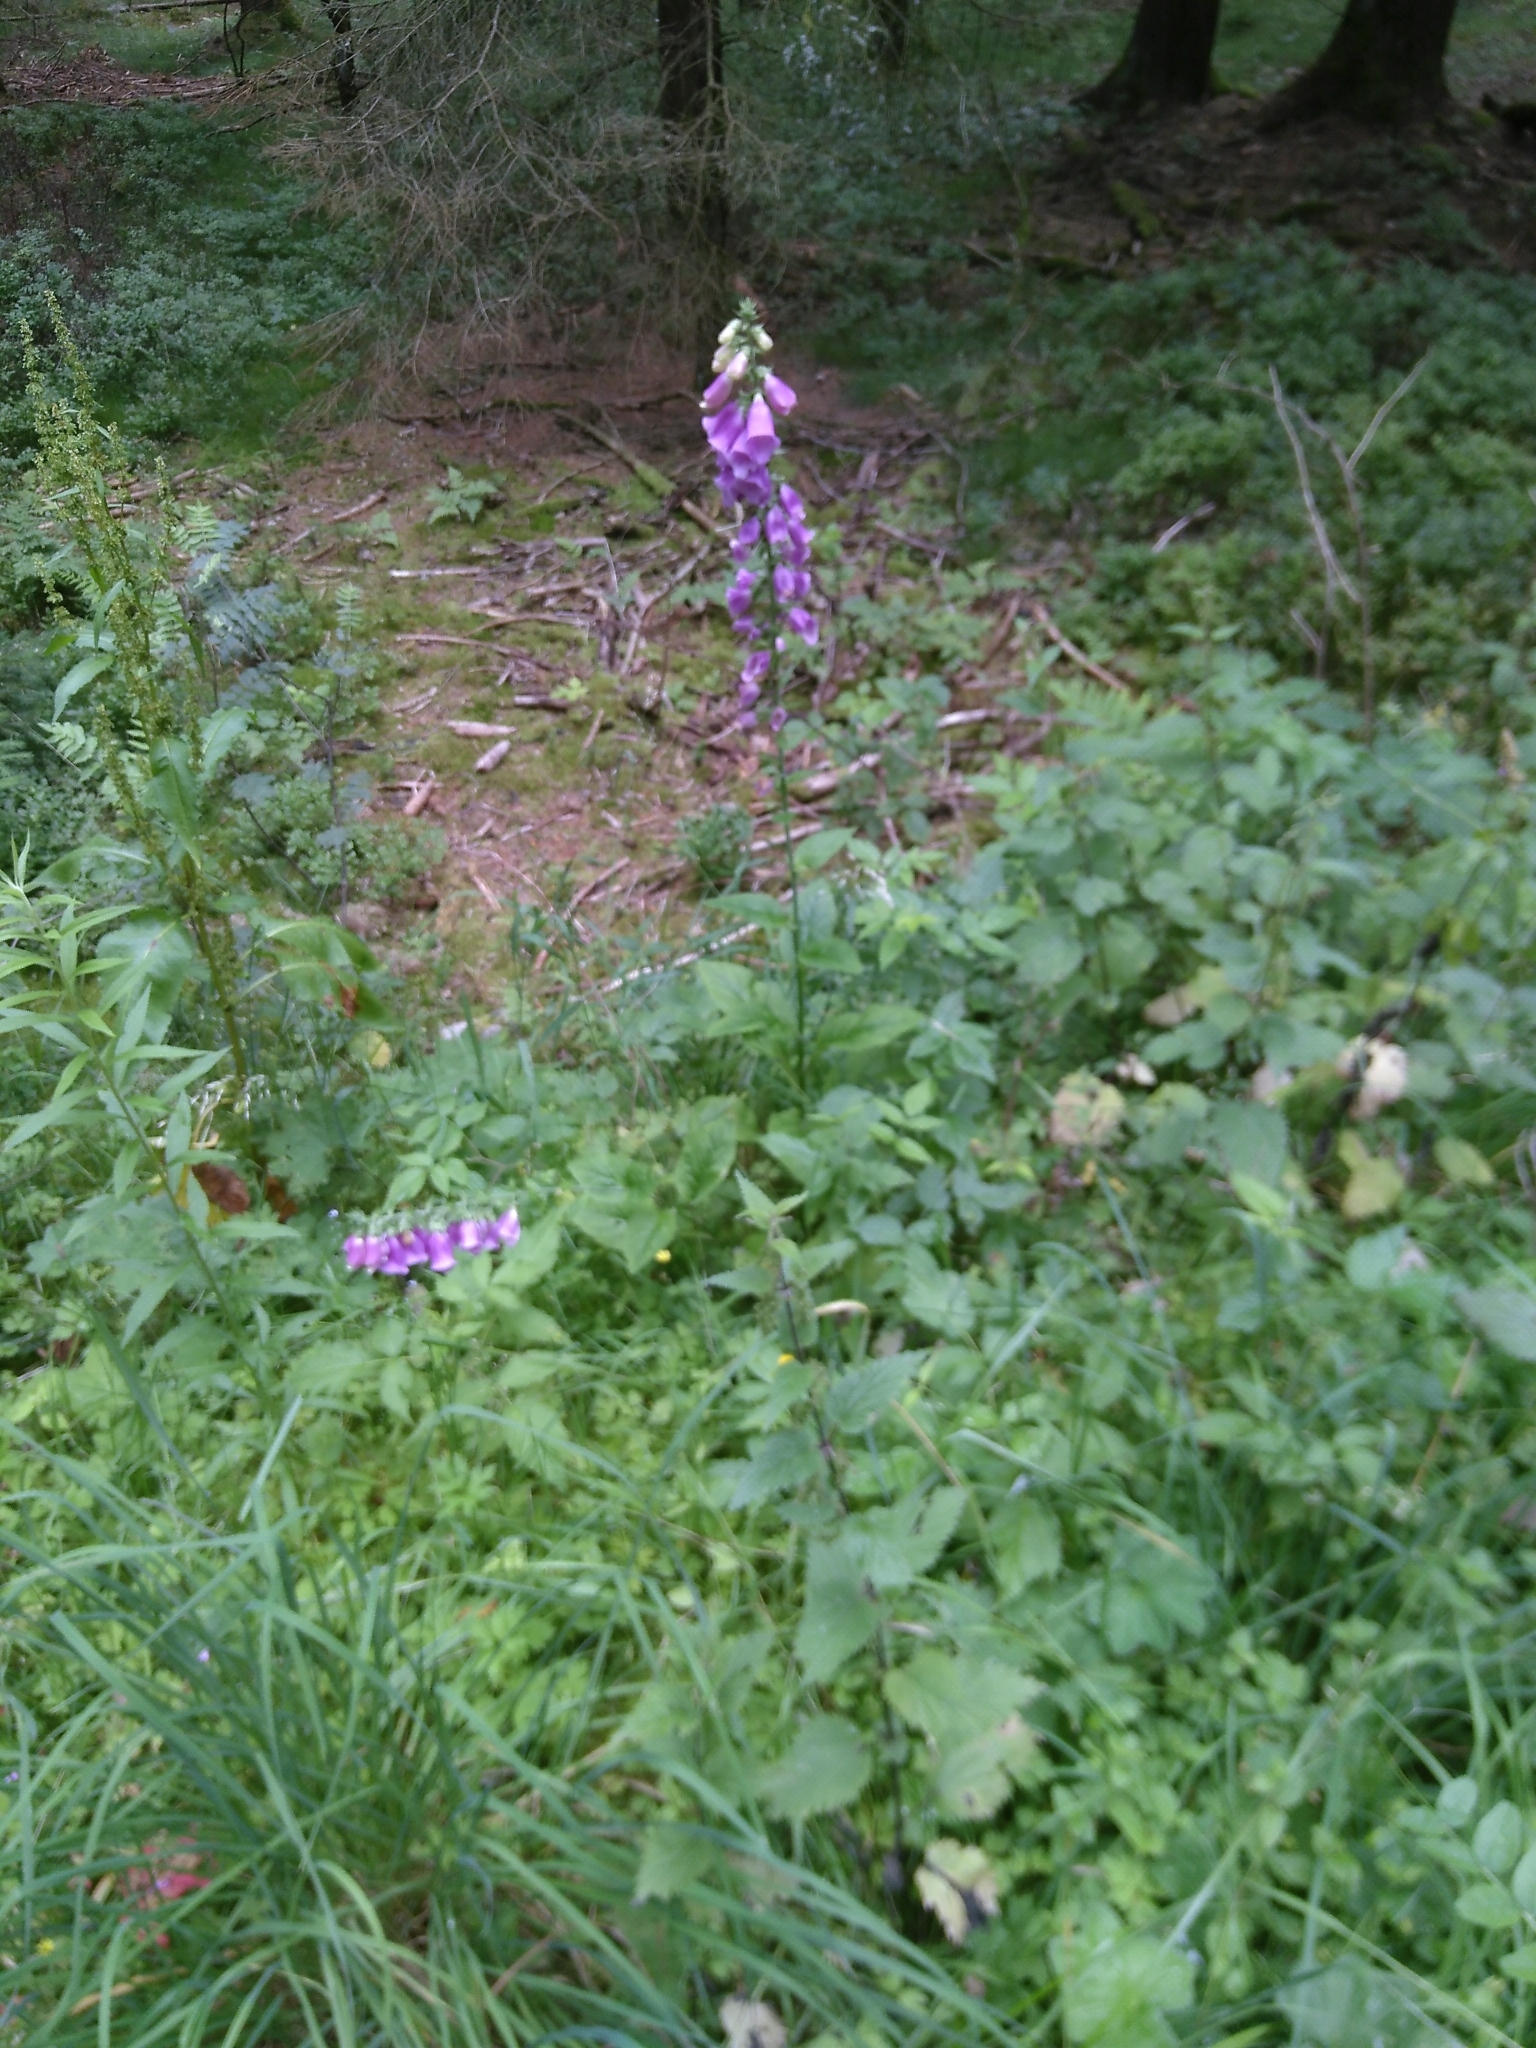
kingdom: Plantae
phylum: Tracheophyta
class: Magnoliopsida
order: Lamiales
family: Plantaginaceae
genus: Digitalis
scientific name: Digitalis purpurea
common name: Foxglove
